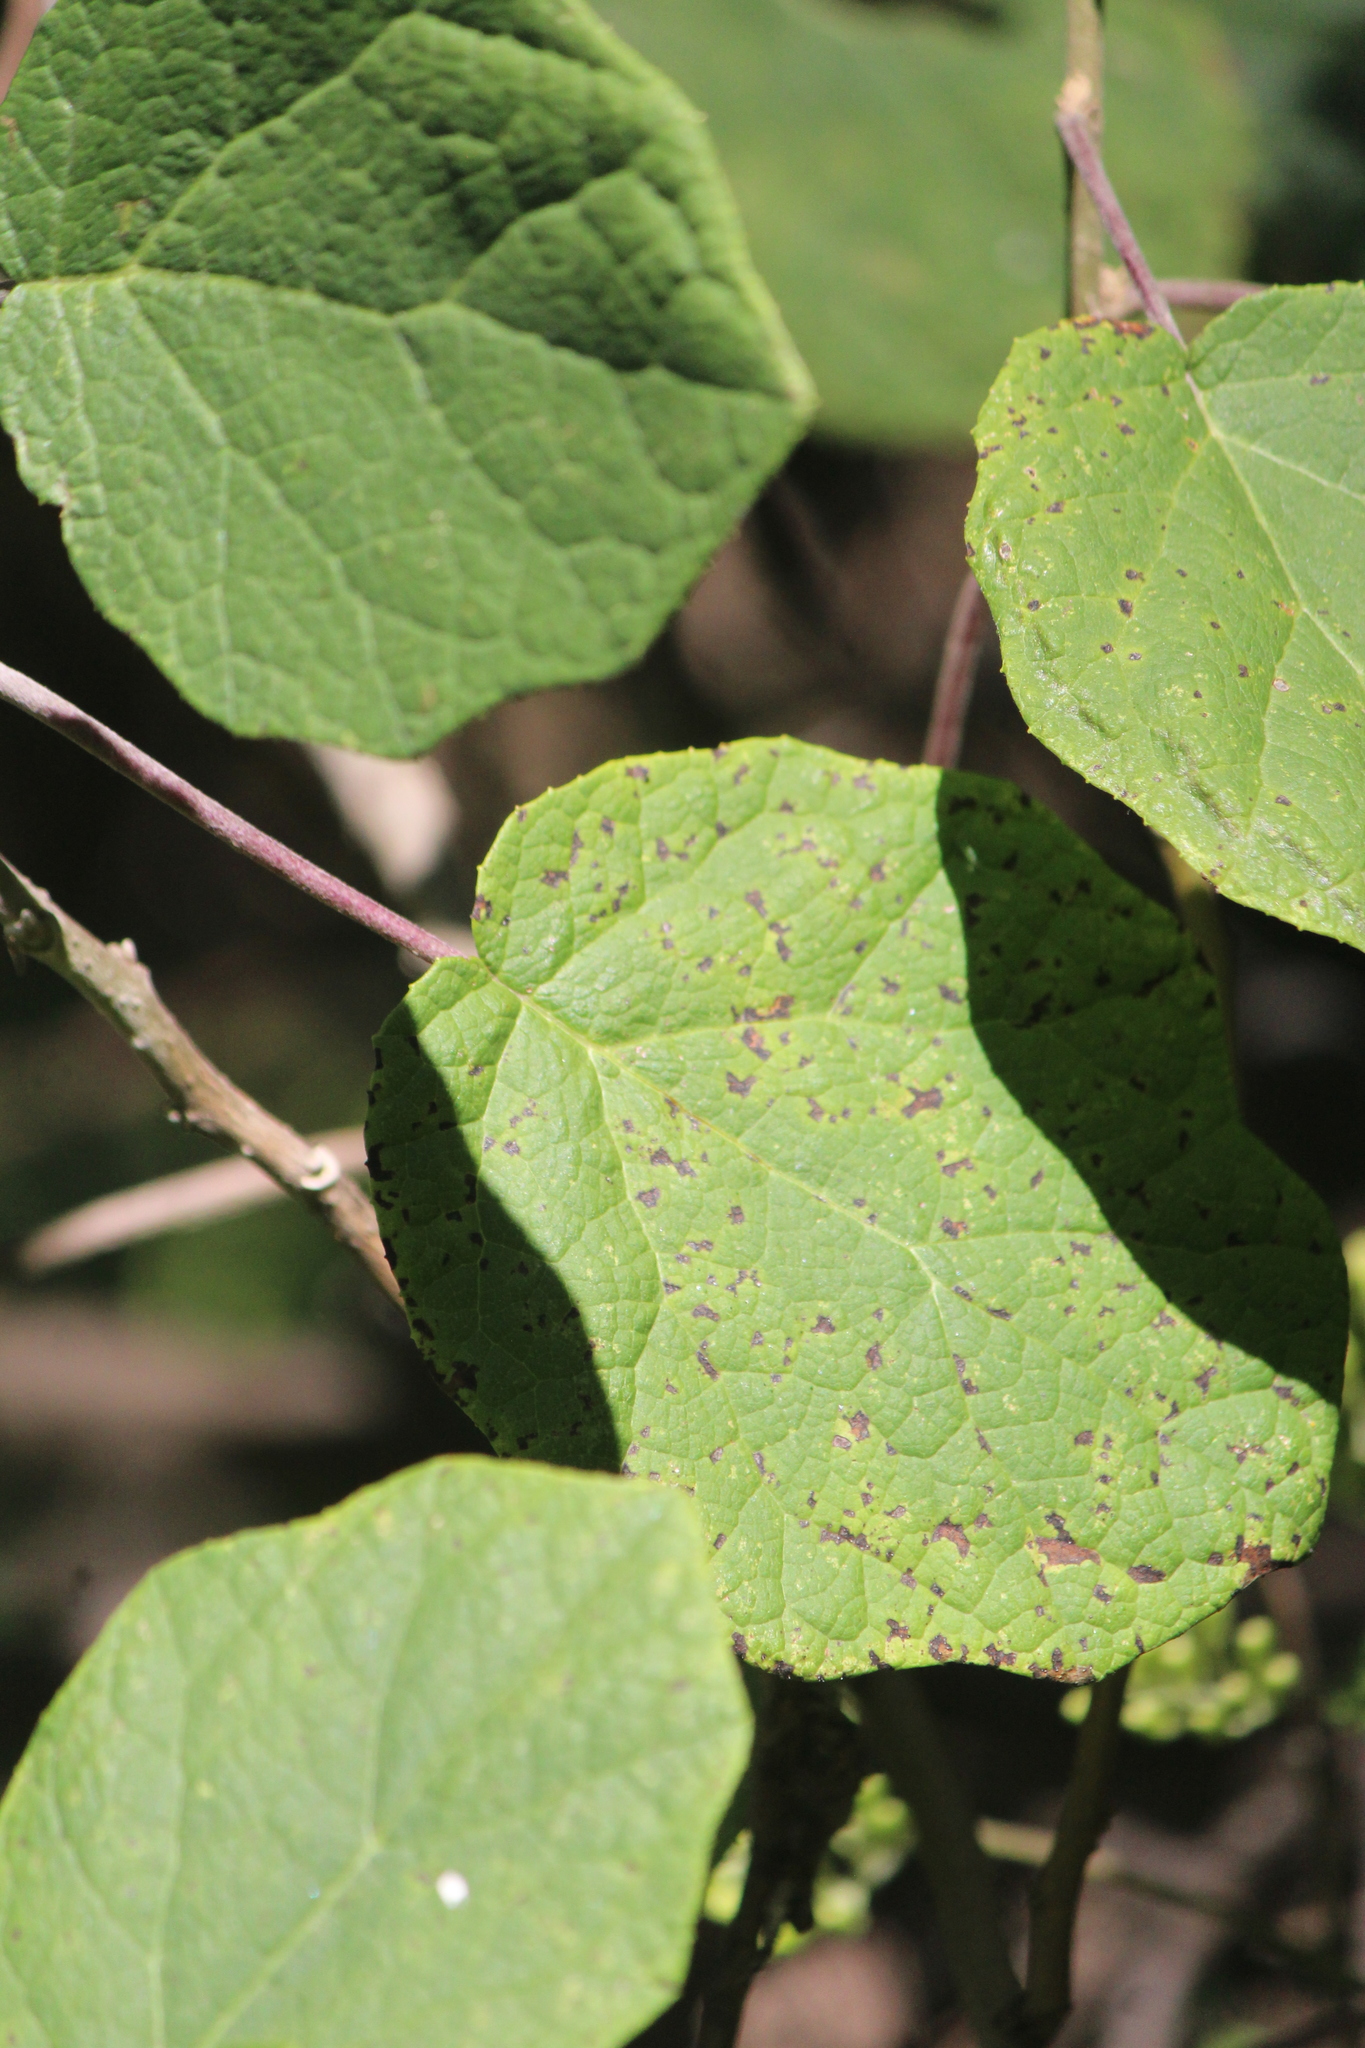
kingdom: Plantae
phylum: Tracheophyta
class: Magnoliopsida
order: Asterales
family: Asteraceae
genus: Roldana
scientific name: Roldana aschenborniana
